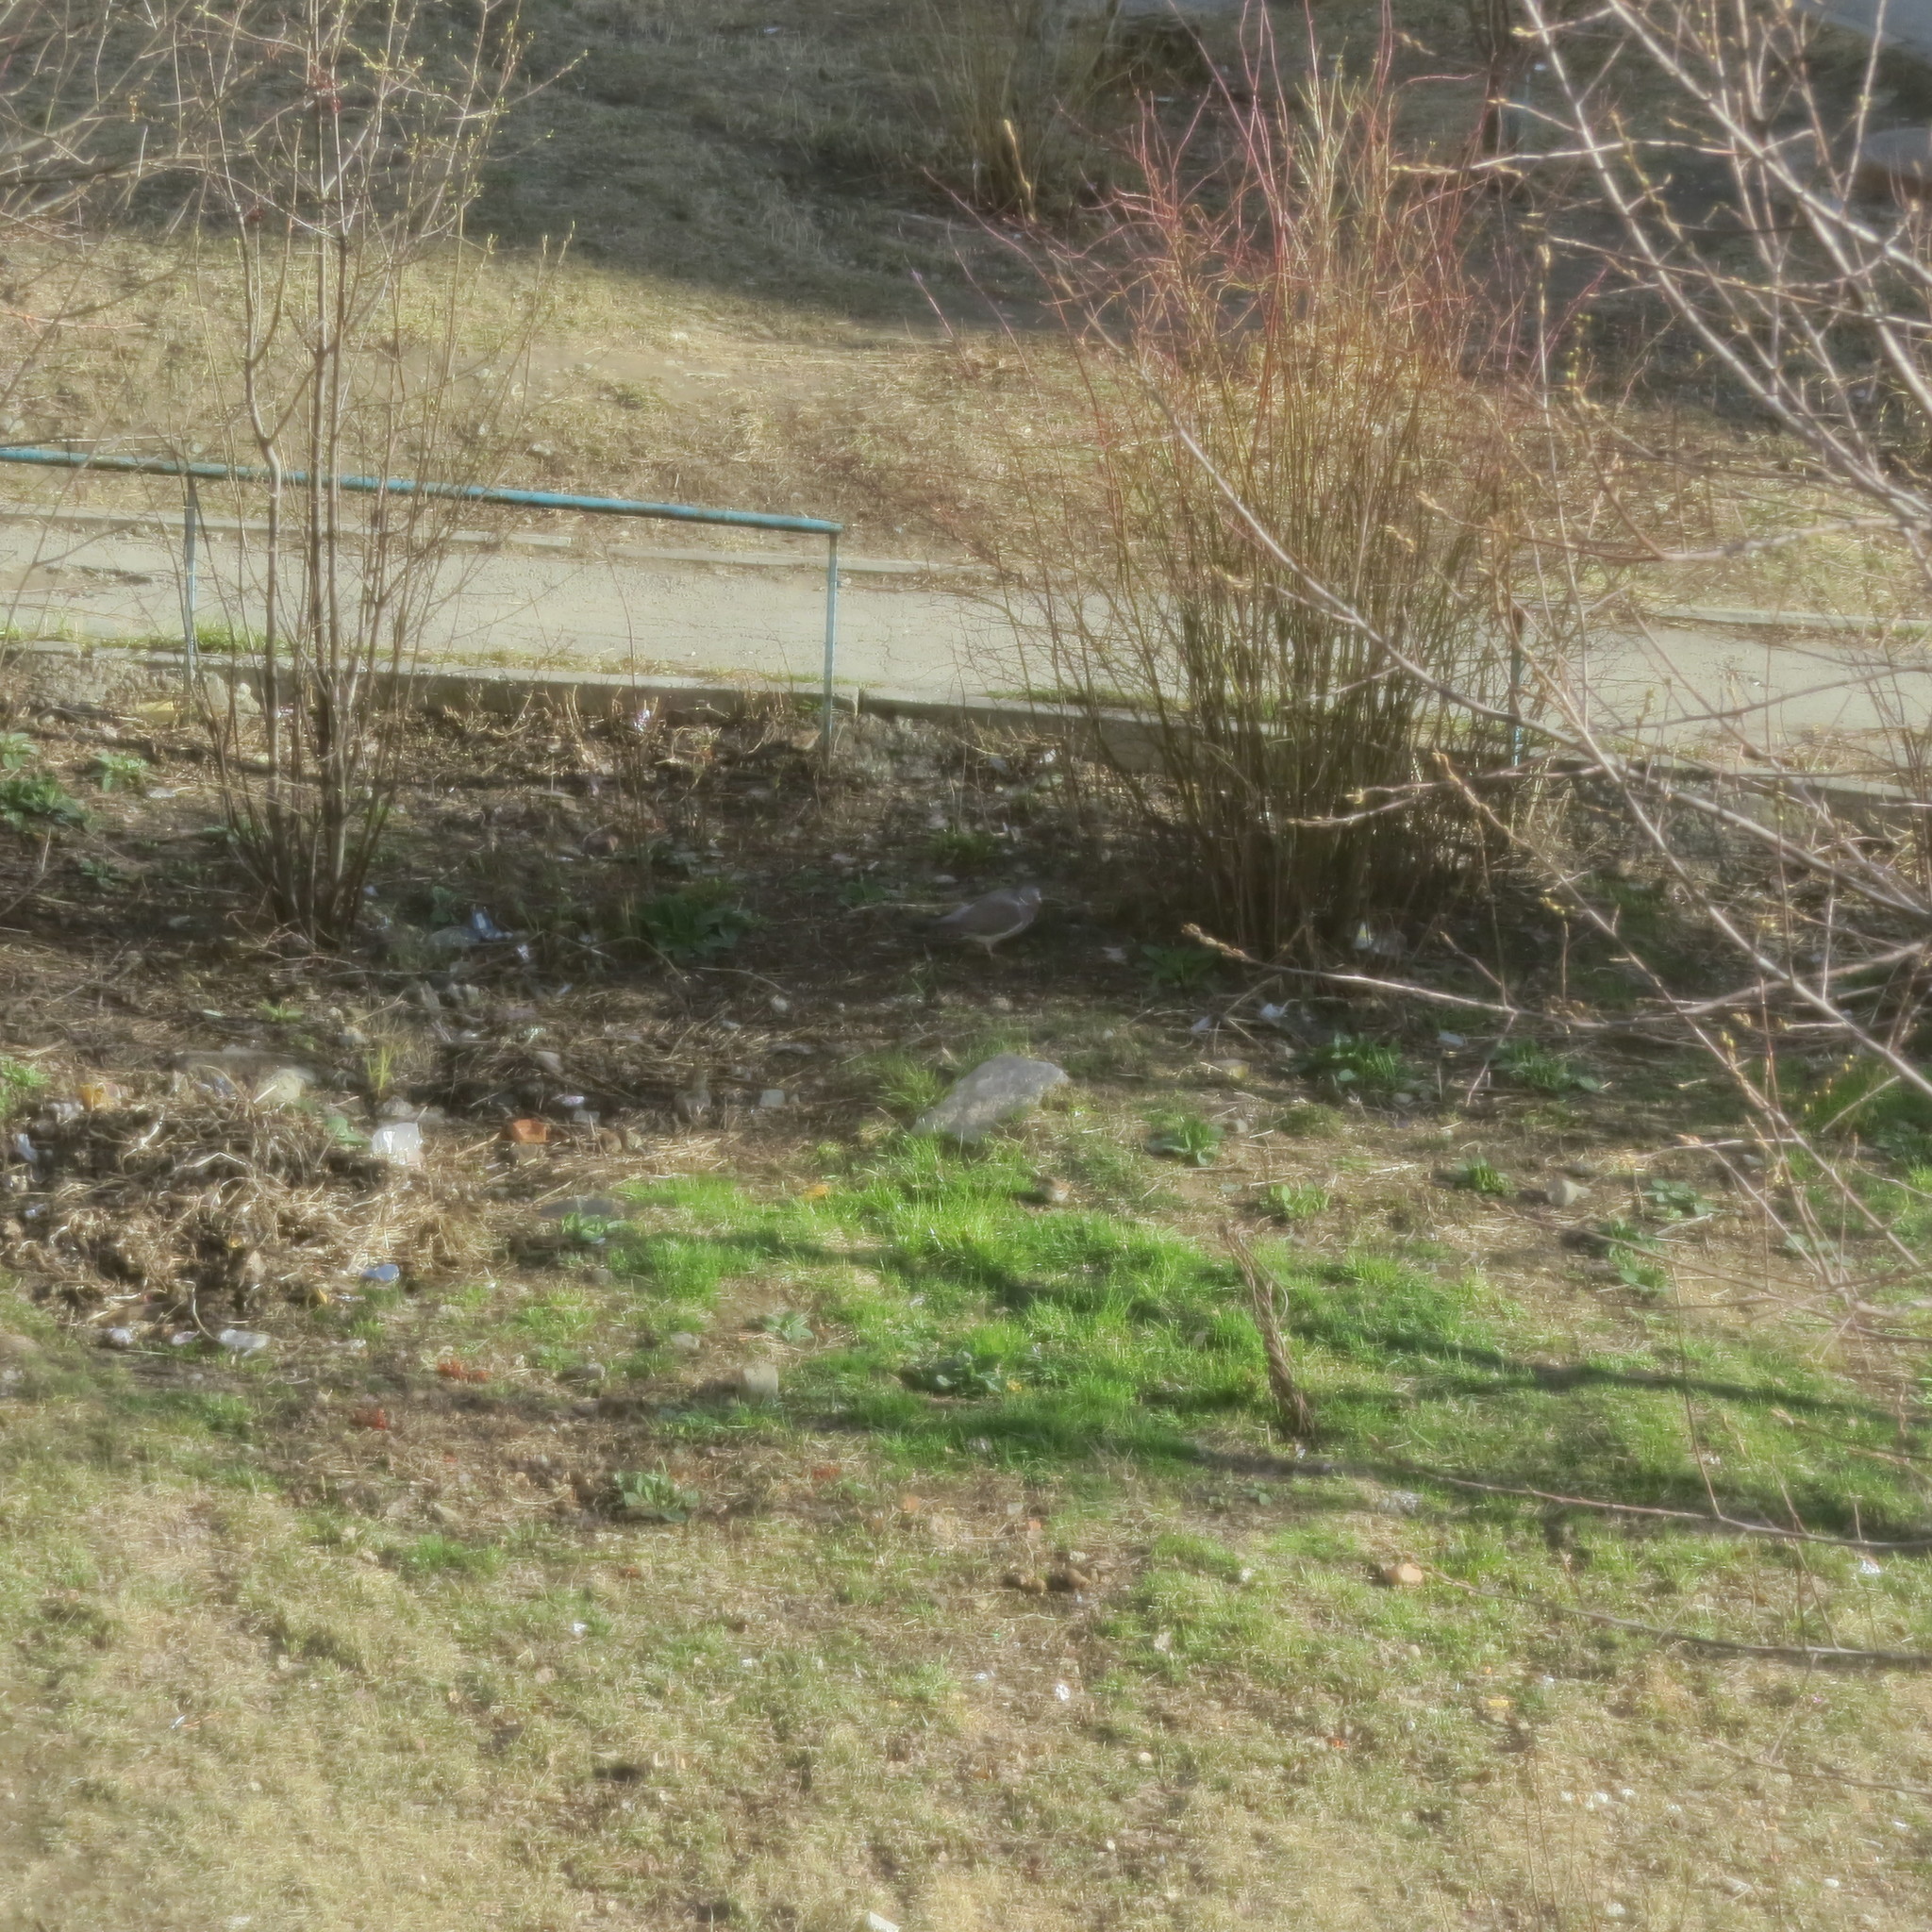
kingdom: Animalia
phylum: Chordata
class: Aves
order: Columbiformes
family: Columbidae
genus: Columba
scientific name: Columba palumbus
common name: Common wood pigeon
